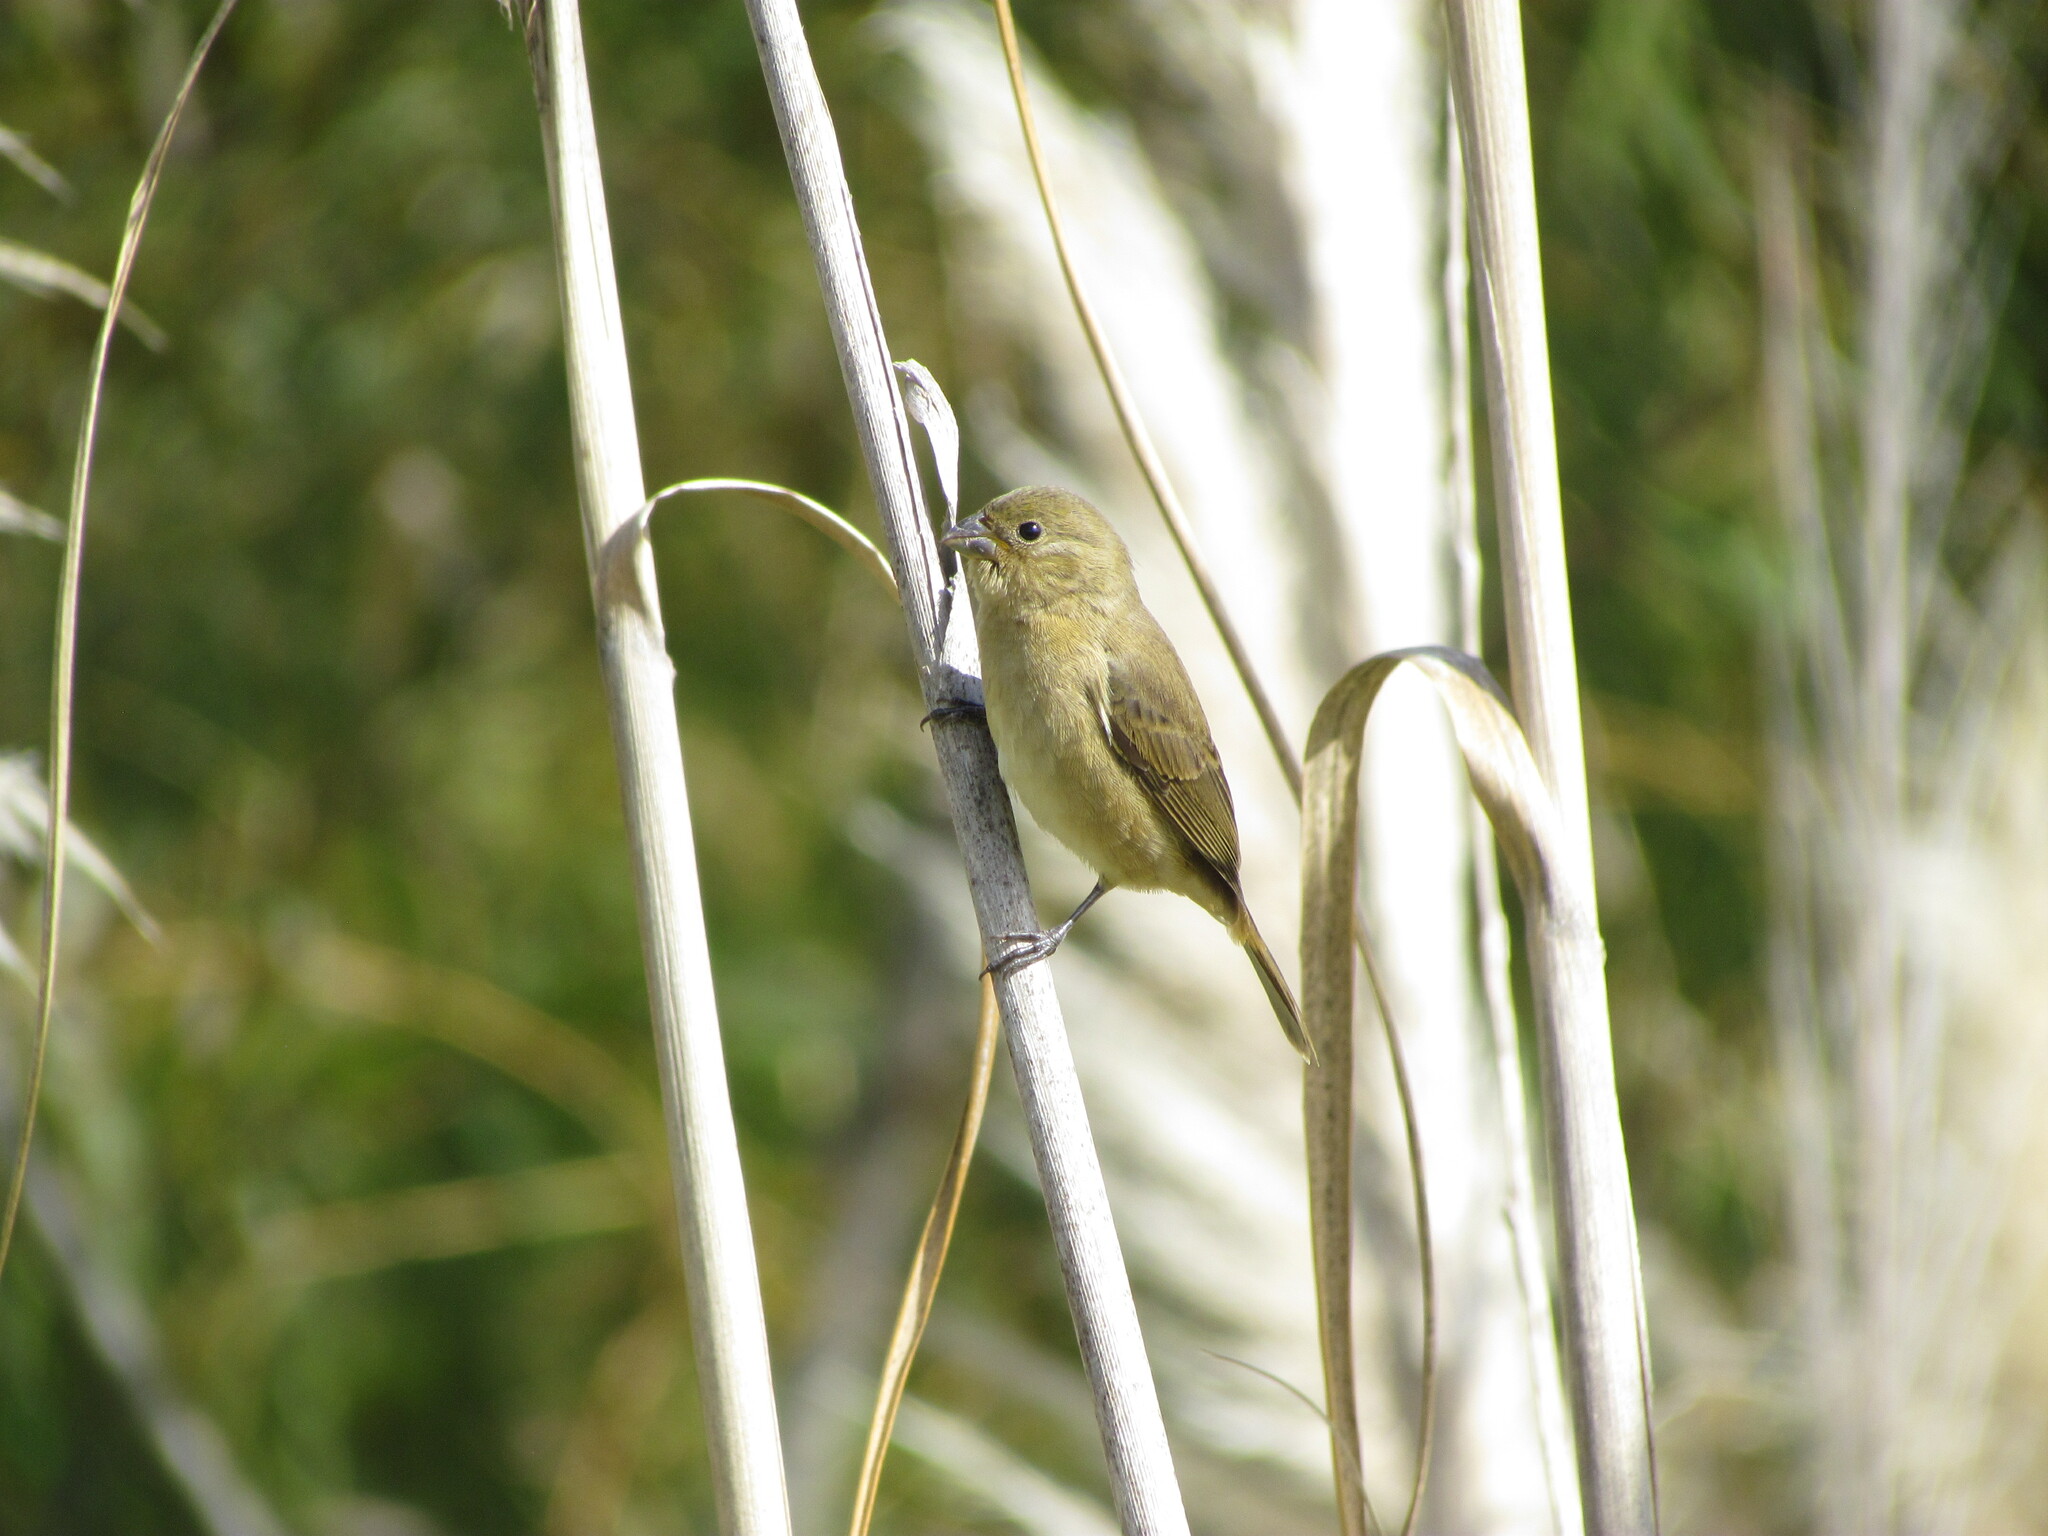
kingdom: Animalia
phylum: Chordata
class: Aves
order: Passeriformes
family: Thraupidae
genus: Sporophila
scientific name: Sporophila caerulescens
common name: Double-collared seedeater
